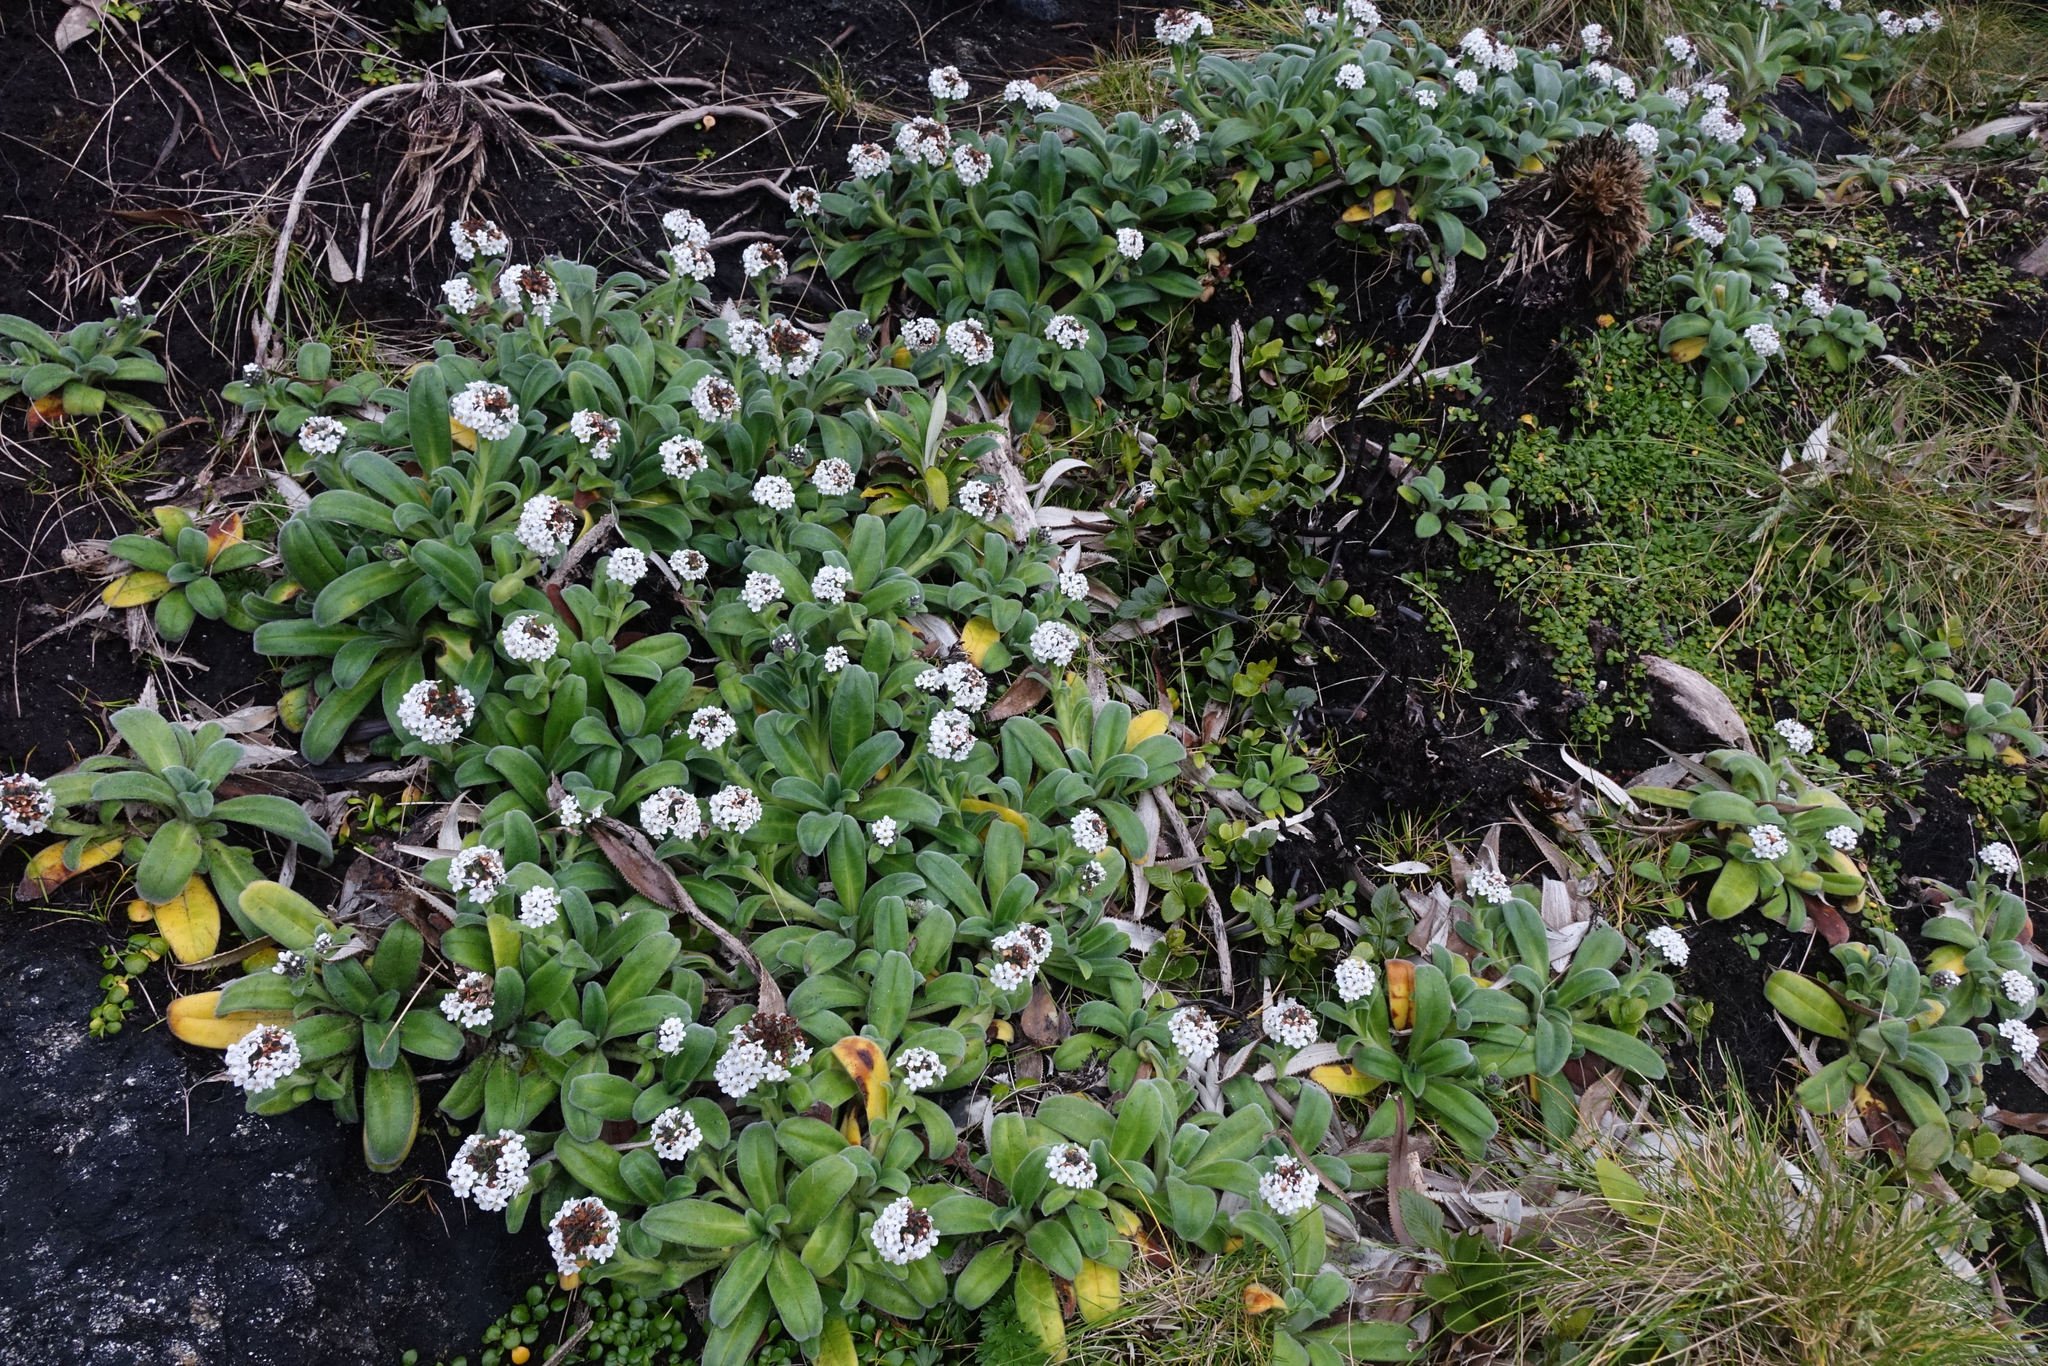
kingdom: Plantae
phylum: Tracheophyta
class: Magnoliopsida
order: Boraginales
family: Boraginaceae
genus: Myosotis
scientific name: Myosotis rakiura
